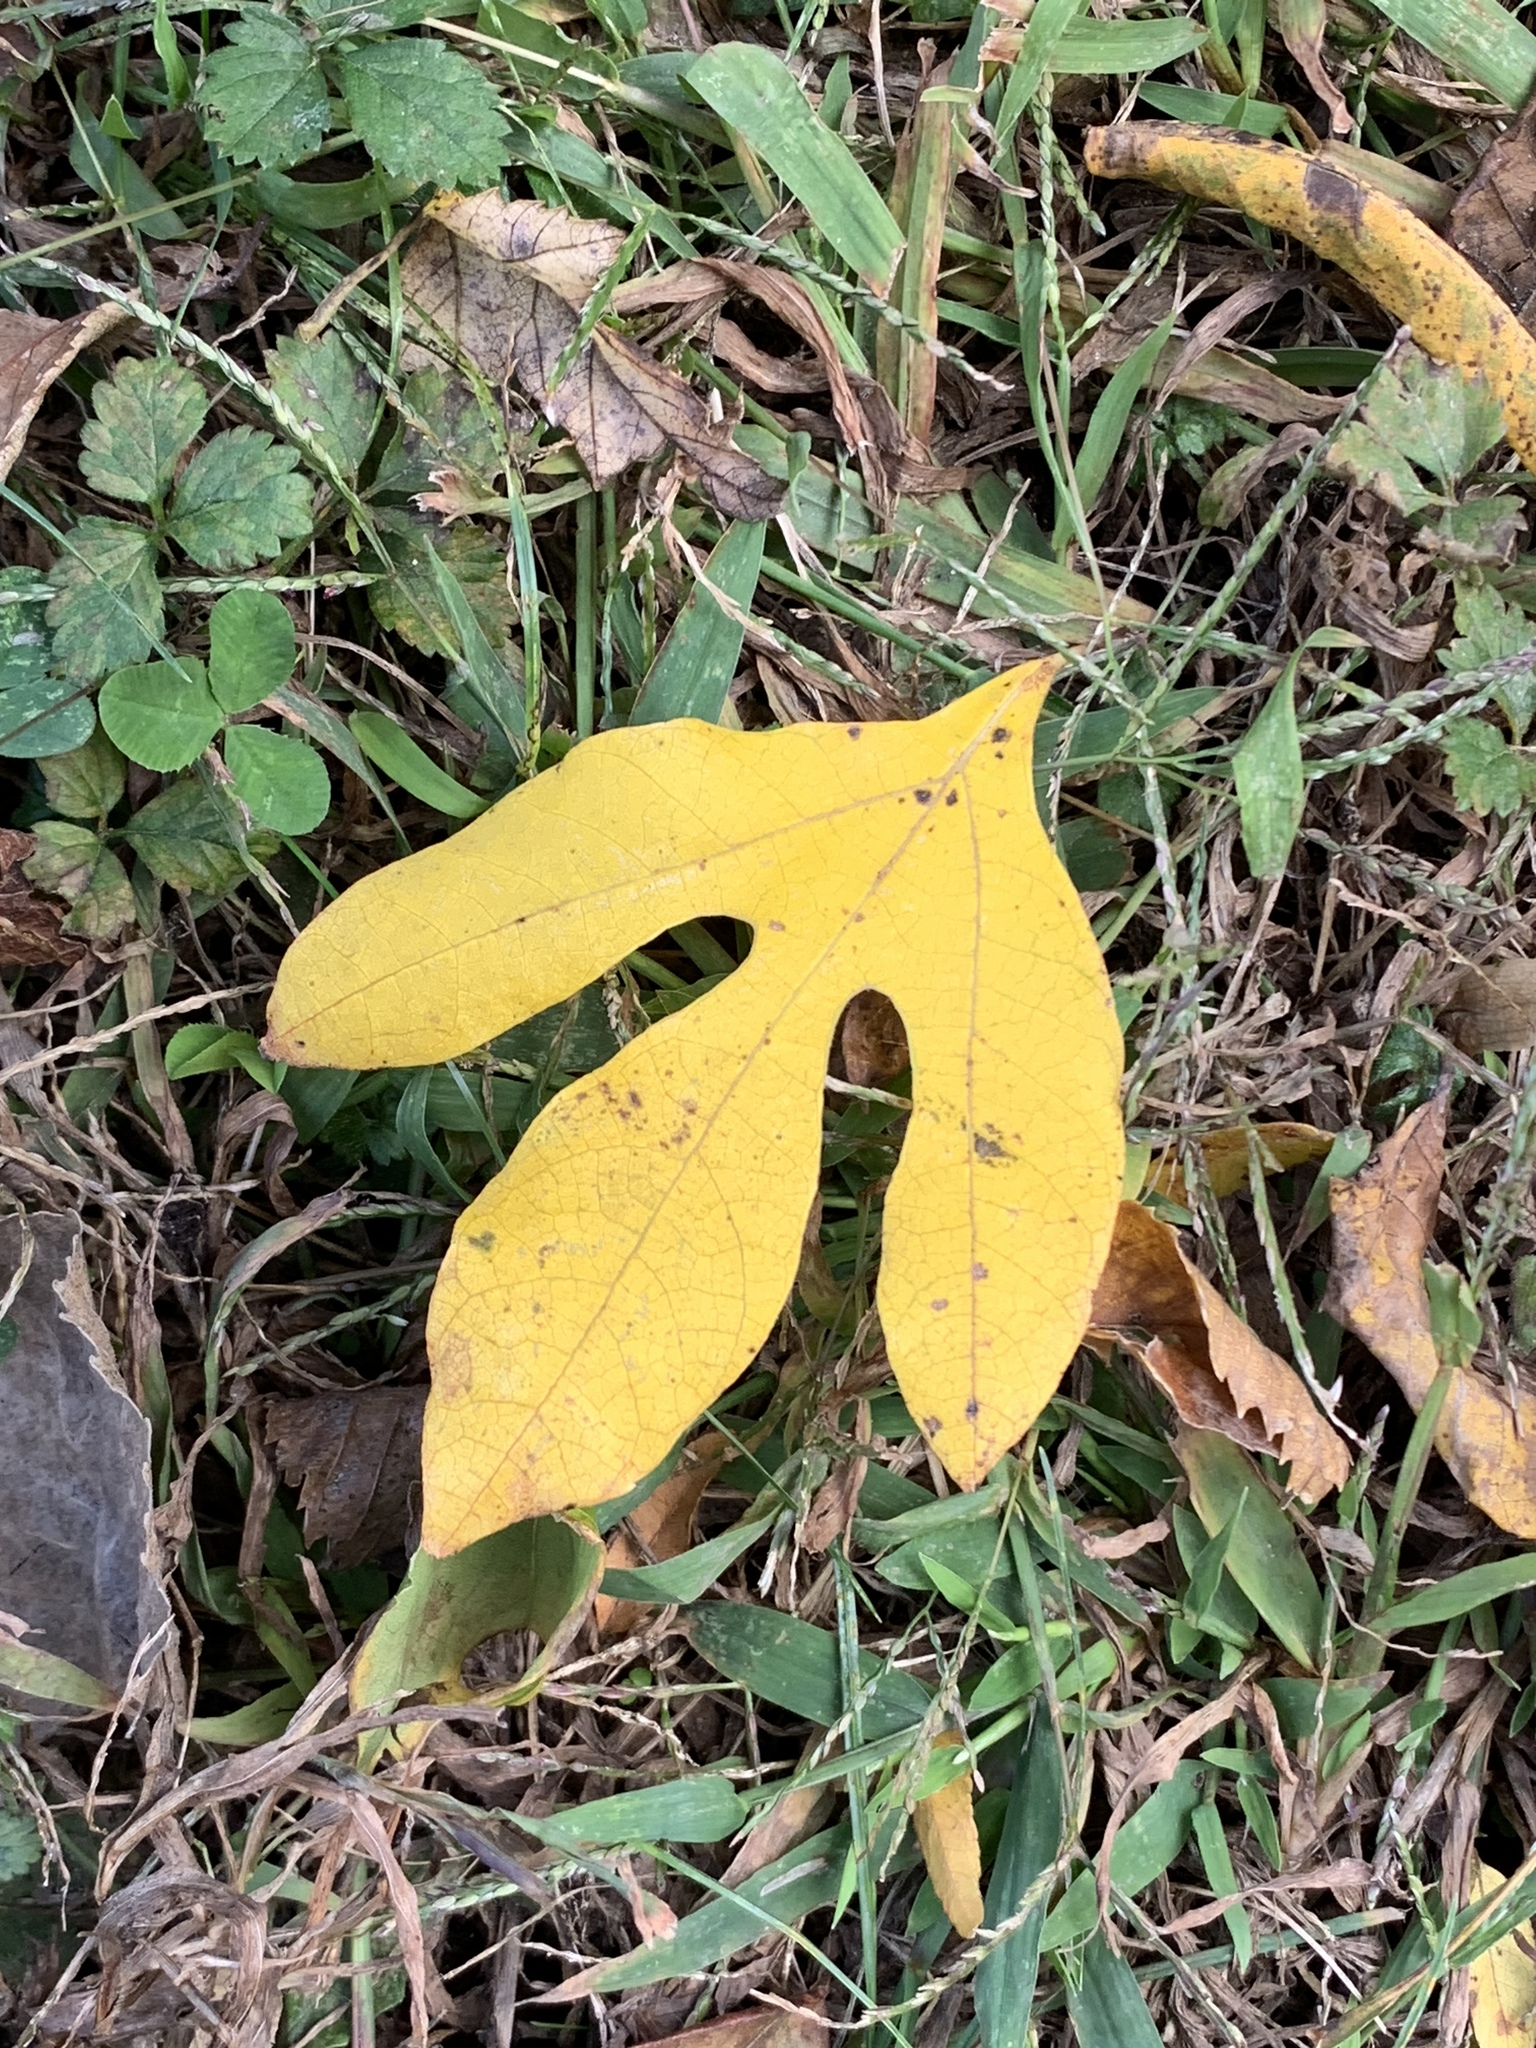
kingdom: Plantae
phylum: Tracheophyta
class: Magnoliopsida
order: Laurales
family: Lauraceae
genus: Sassafras
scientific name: Sassafras albidum
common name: Sassafras
